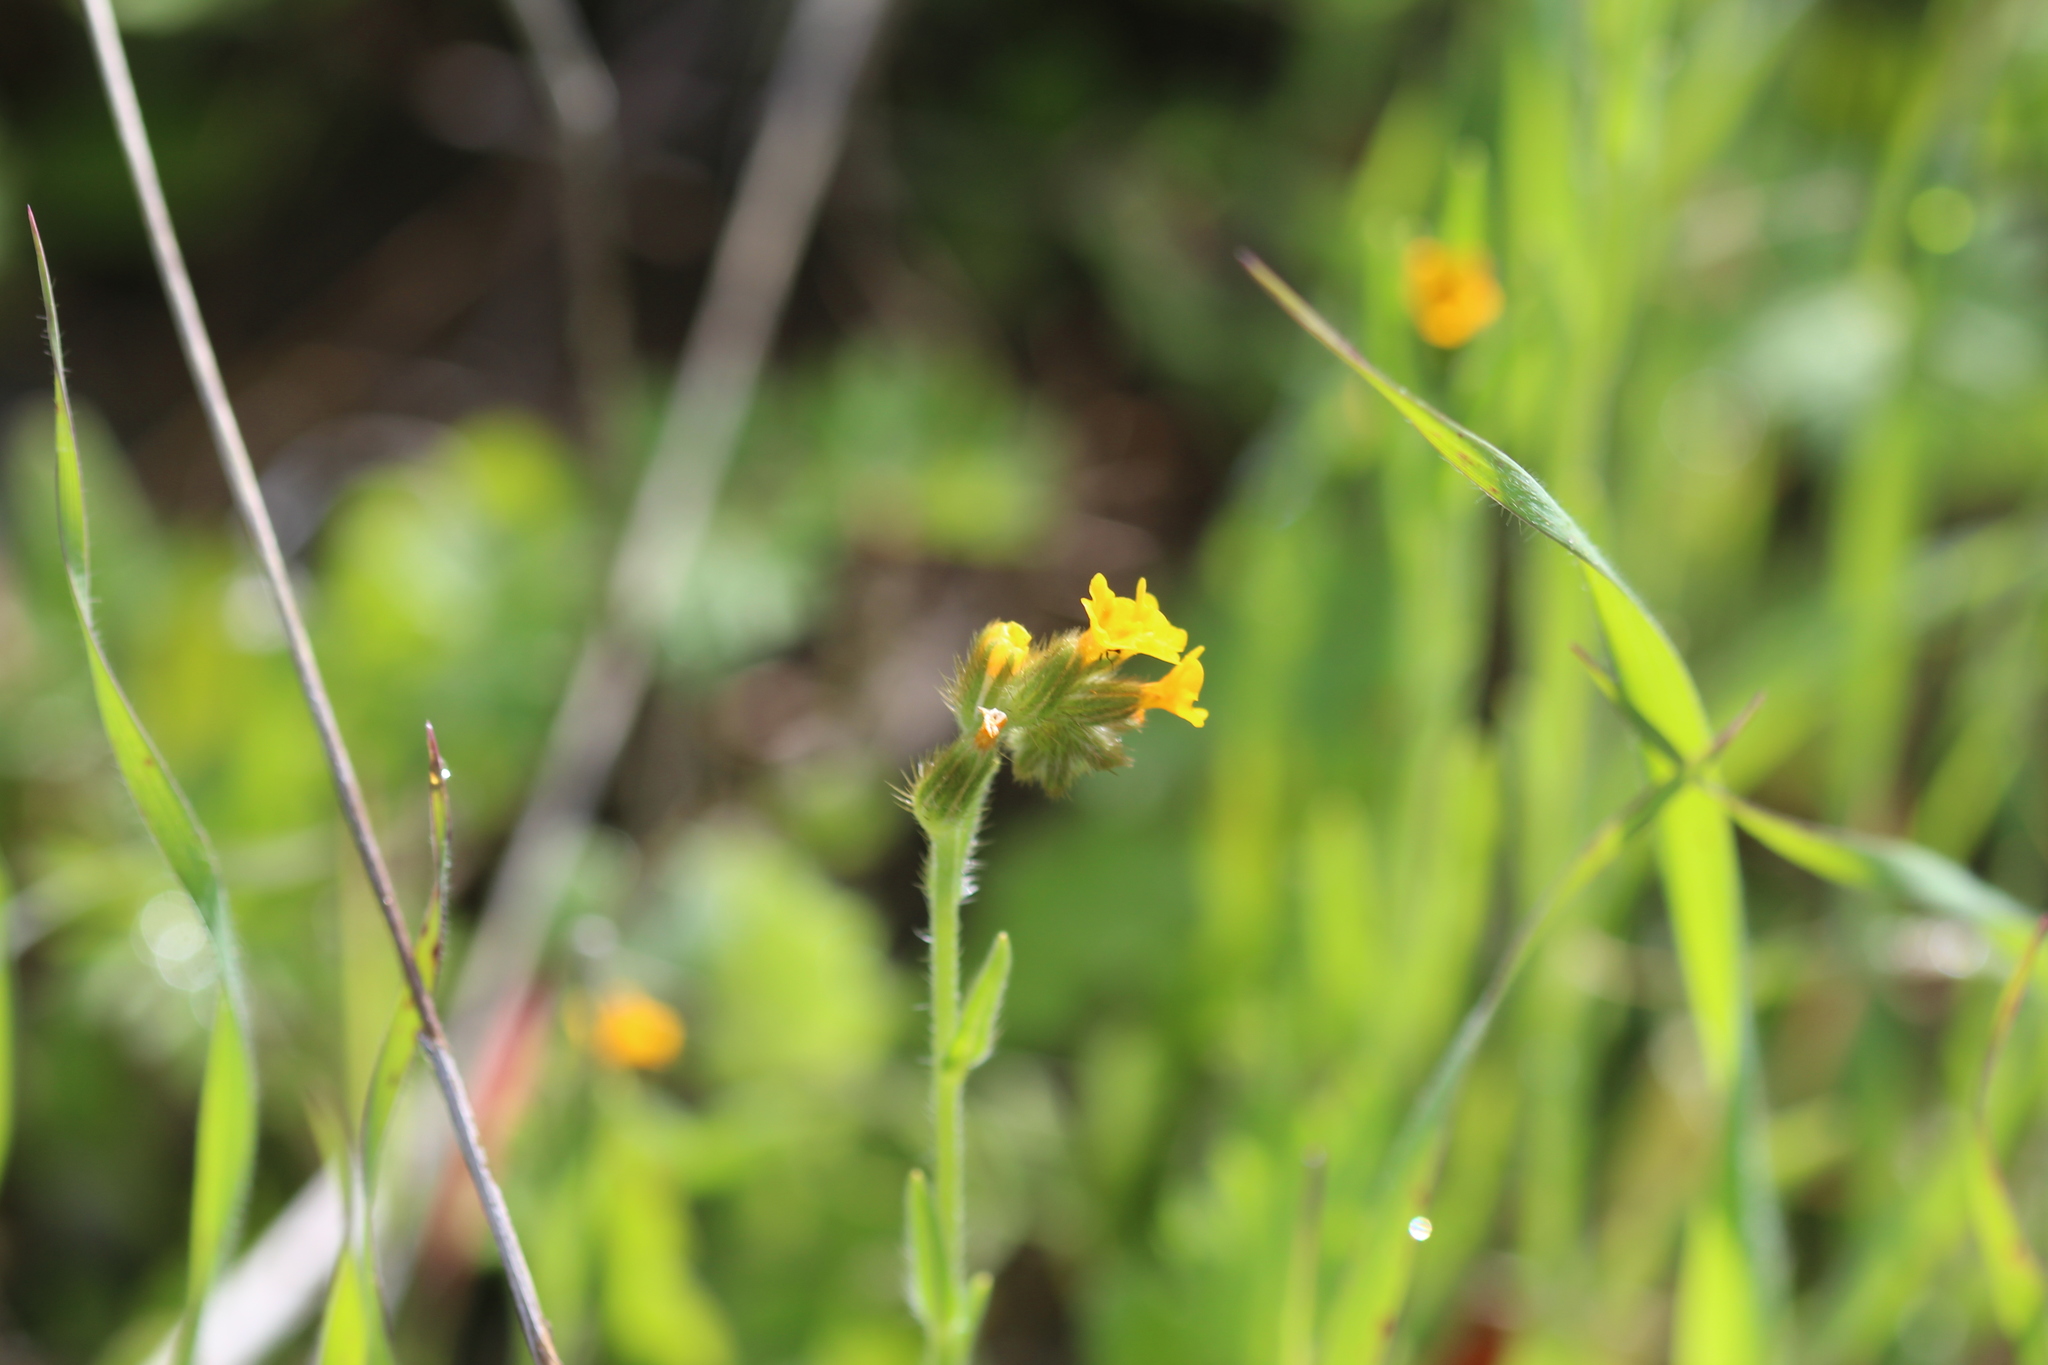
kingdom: Plantae
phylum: Tracheophyta
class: Magnoliopsida
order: Boraginales
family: Boraginaceae
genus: Amsinckia
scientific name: Amsinckia menziesii
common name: Menzies' fiddleneck
